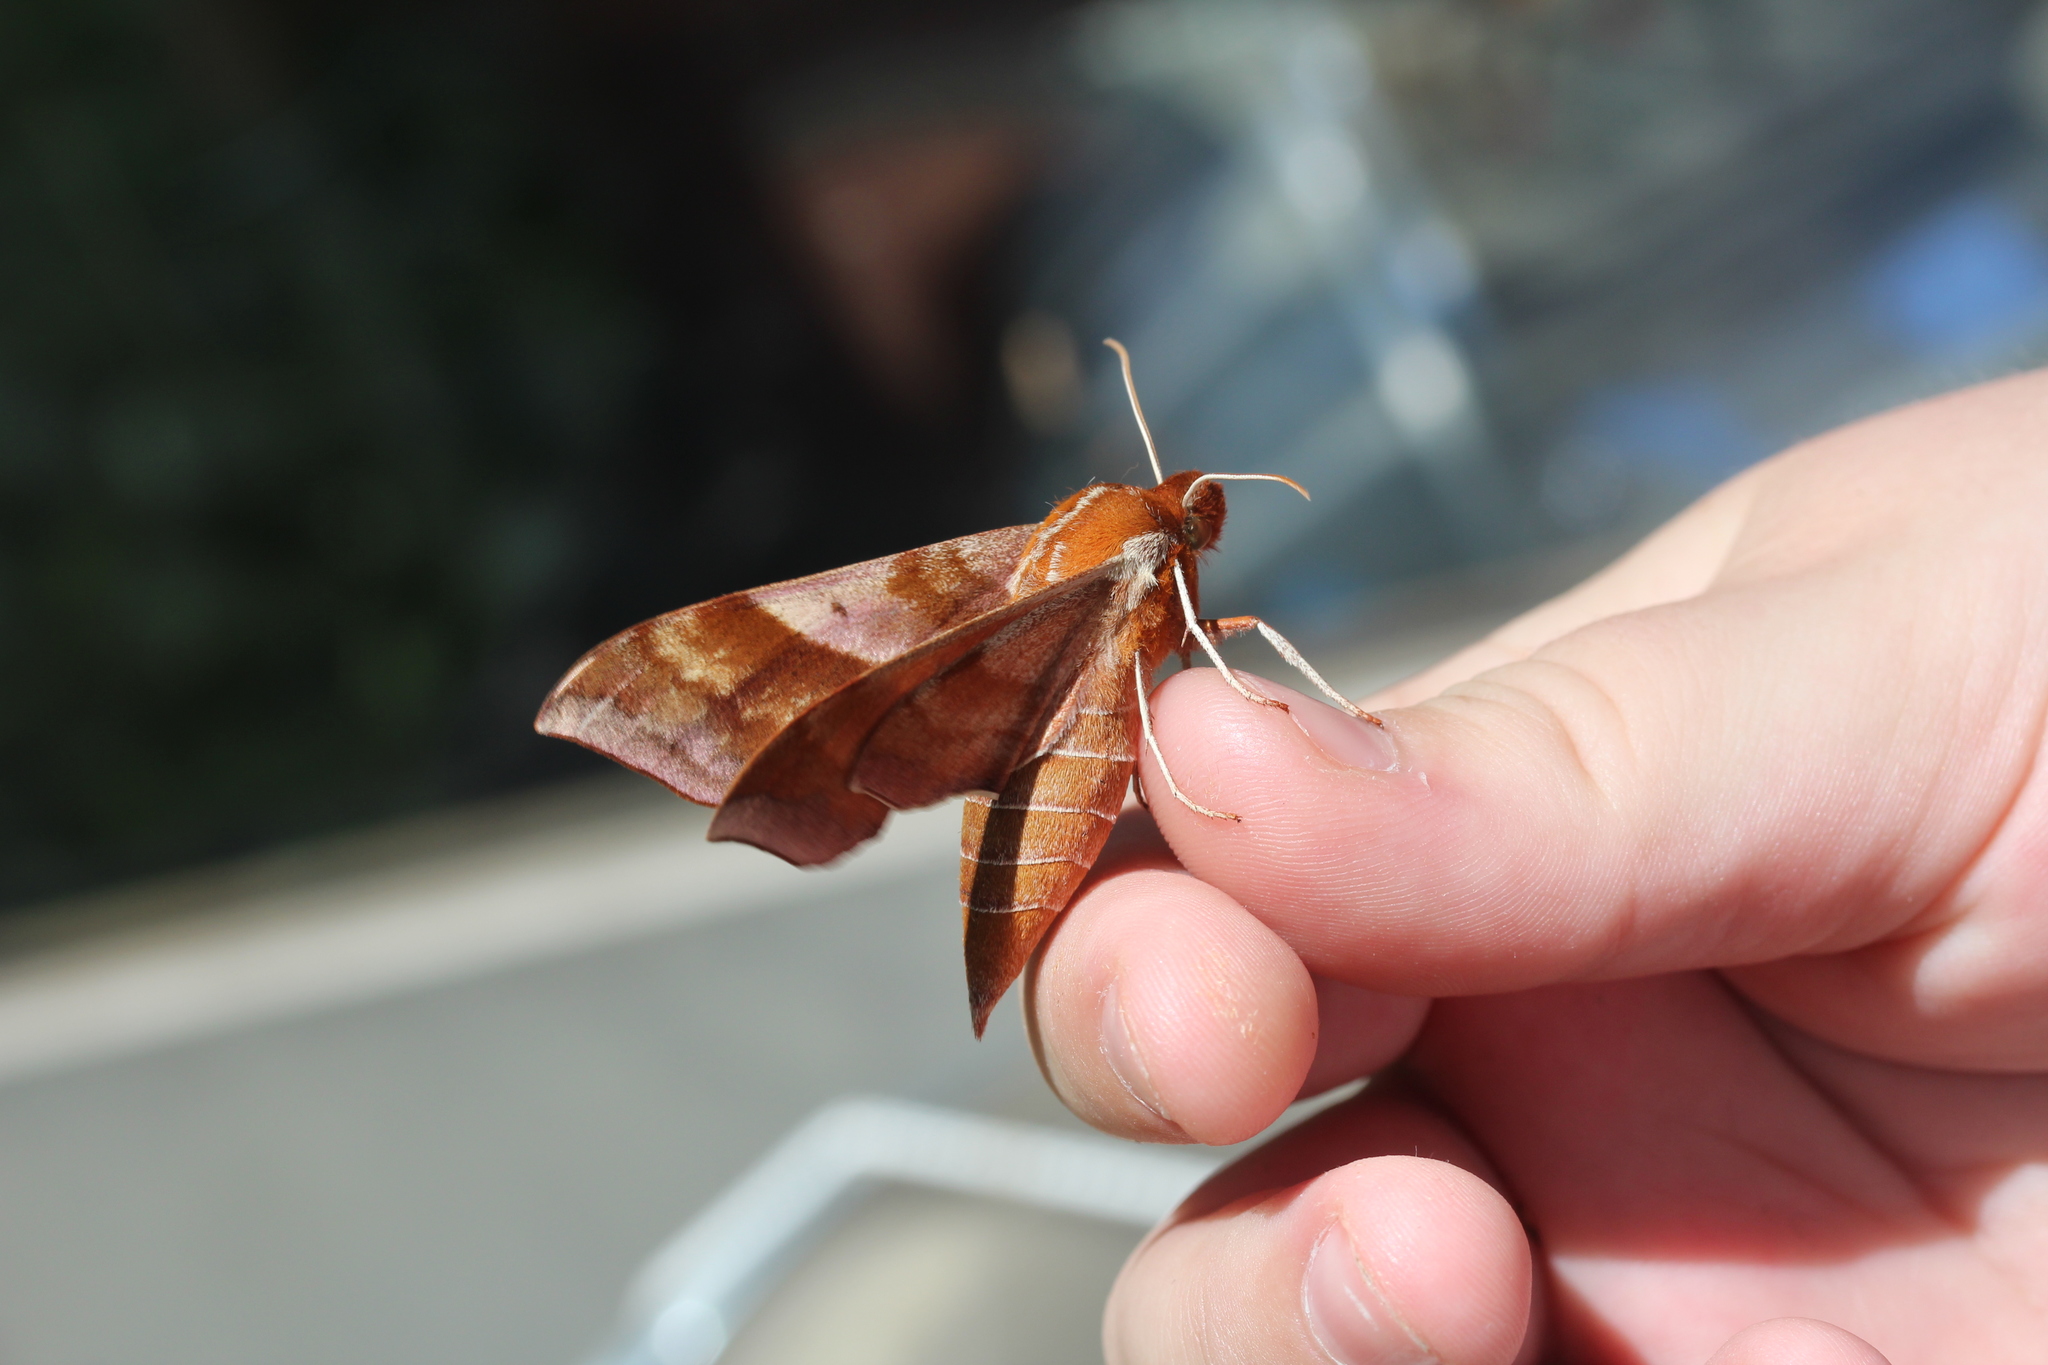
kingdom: Animalia
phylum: Arthropoda
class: Insecta
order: Lepidoptera
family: Sphingidae
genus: Darapsa
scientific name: Darapsa choerilus
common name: Azalea sphinx
